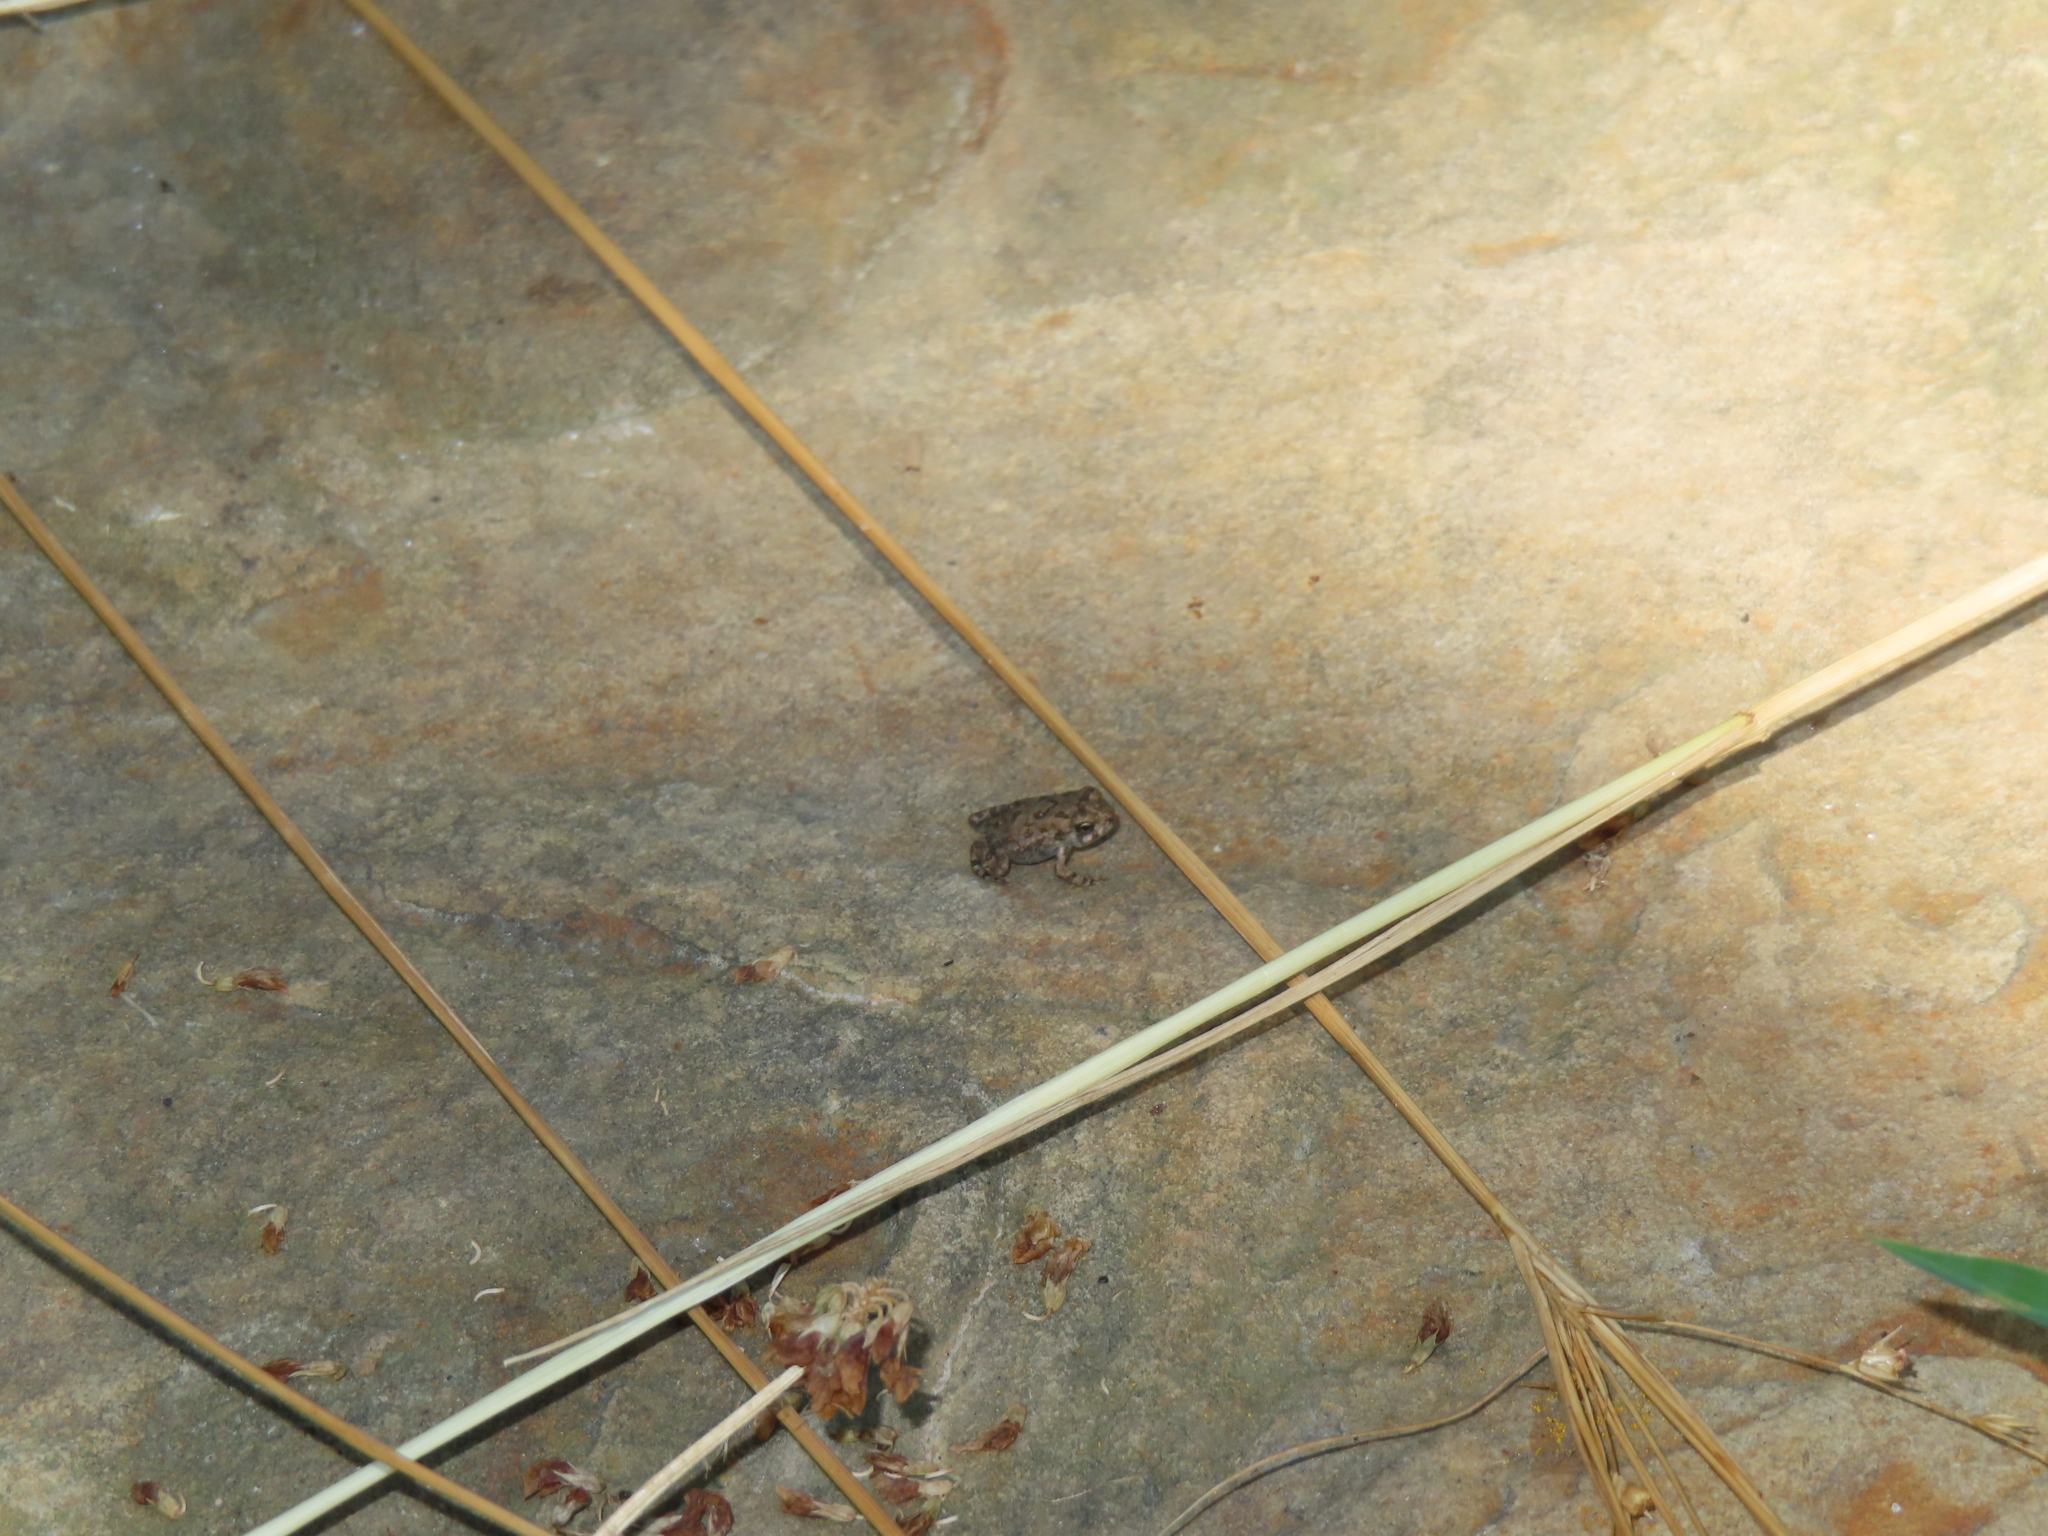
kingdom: Animalia
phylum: Chordata
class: Amphibia
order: Anura
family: Bufonidae
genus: Anaxyrus
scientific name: Anaxyrus fowleri
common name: Fowler's toad
